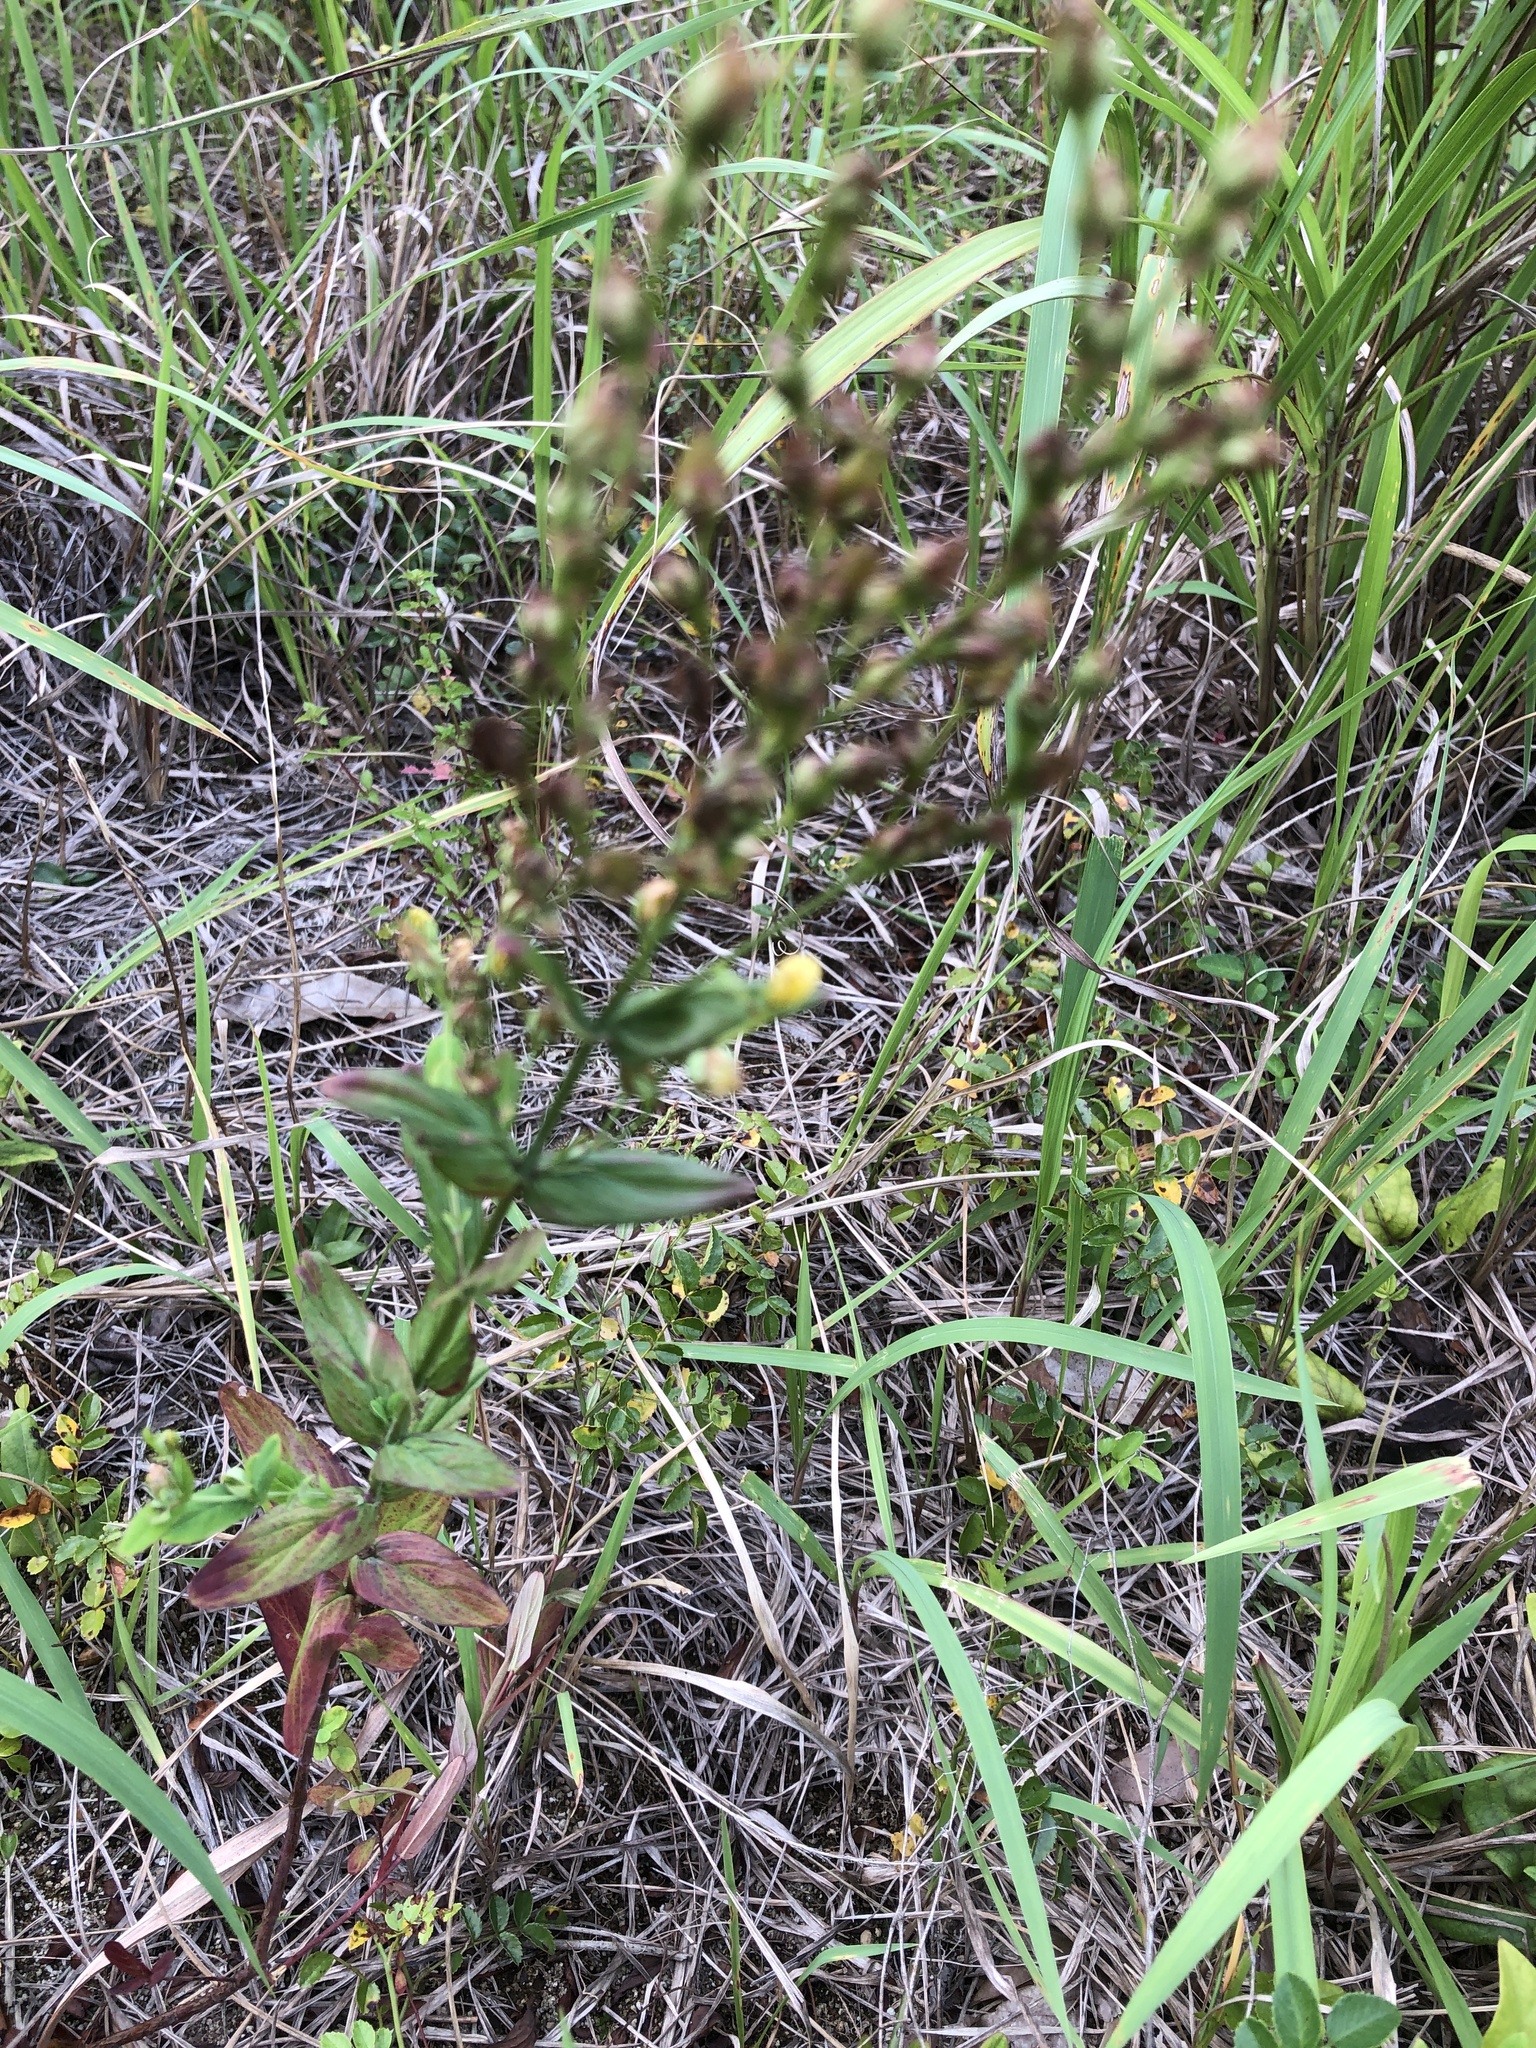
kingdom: Plantae
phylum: Tracheophyta
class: Magnoliopsida
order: Malpighiales
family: Hypericaceae
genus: Hypericum
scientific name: Hypericum erectum
